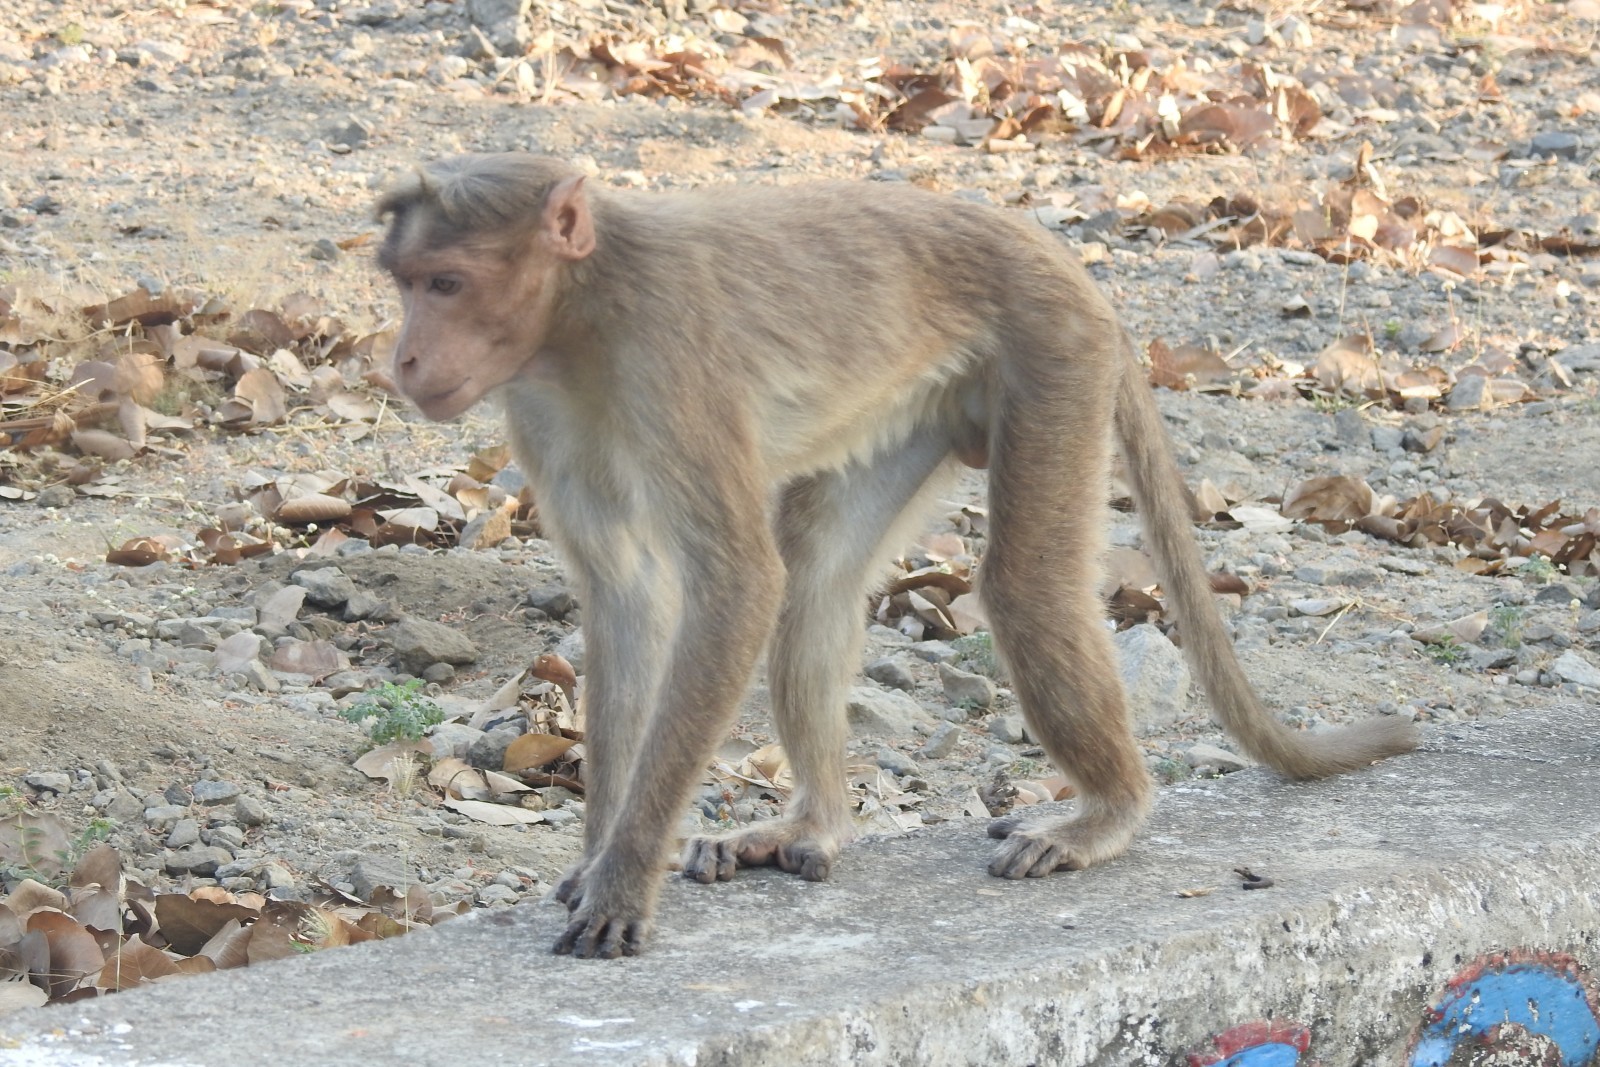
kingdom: Animalia
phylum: Chordata
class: Mammalia
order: Primates
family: Cercopithecidae
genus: Macaca
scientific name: Macaca radiata
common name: Bonnet macaque
